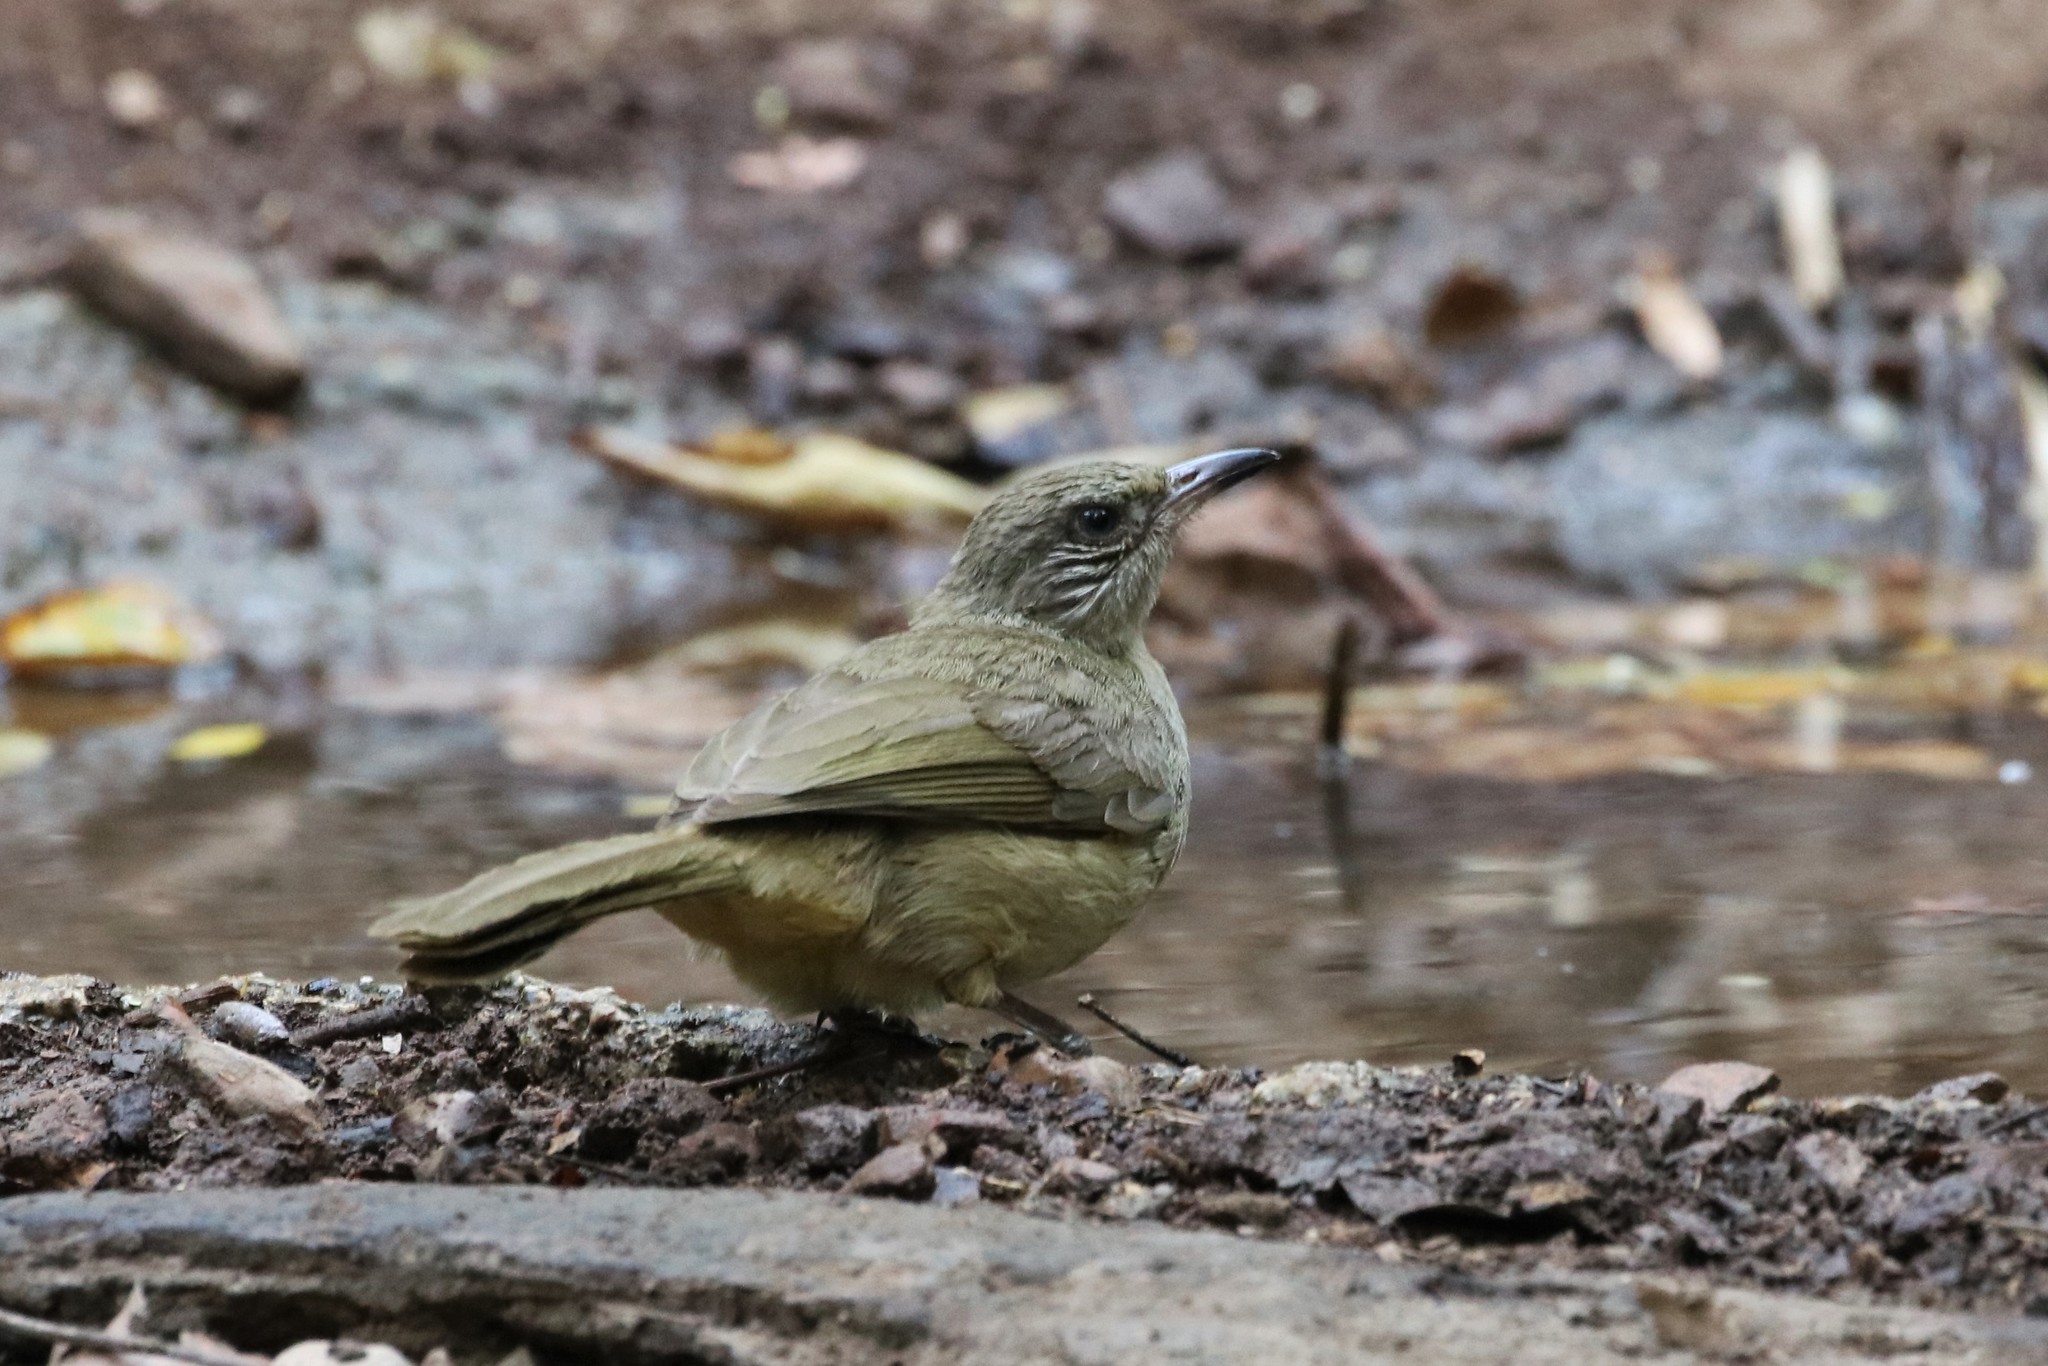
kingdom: Animalia
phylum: Chordata
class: Aves
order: Passeriformes
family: Pycnonotidae
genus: Pycnonotus
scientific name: Pycnonotus blanfordi
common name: Streak-eared bulbul
